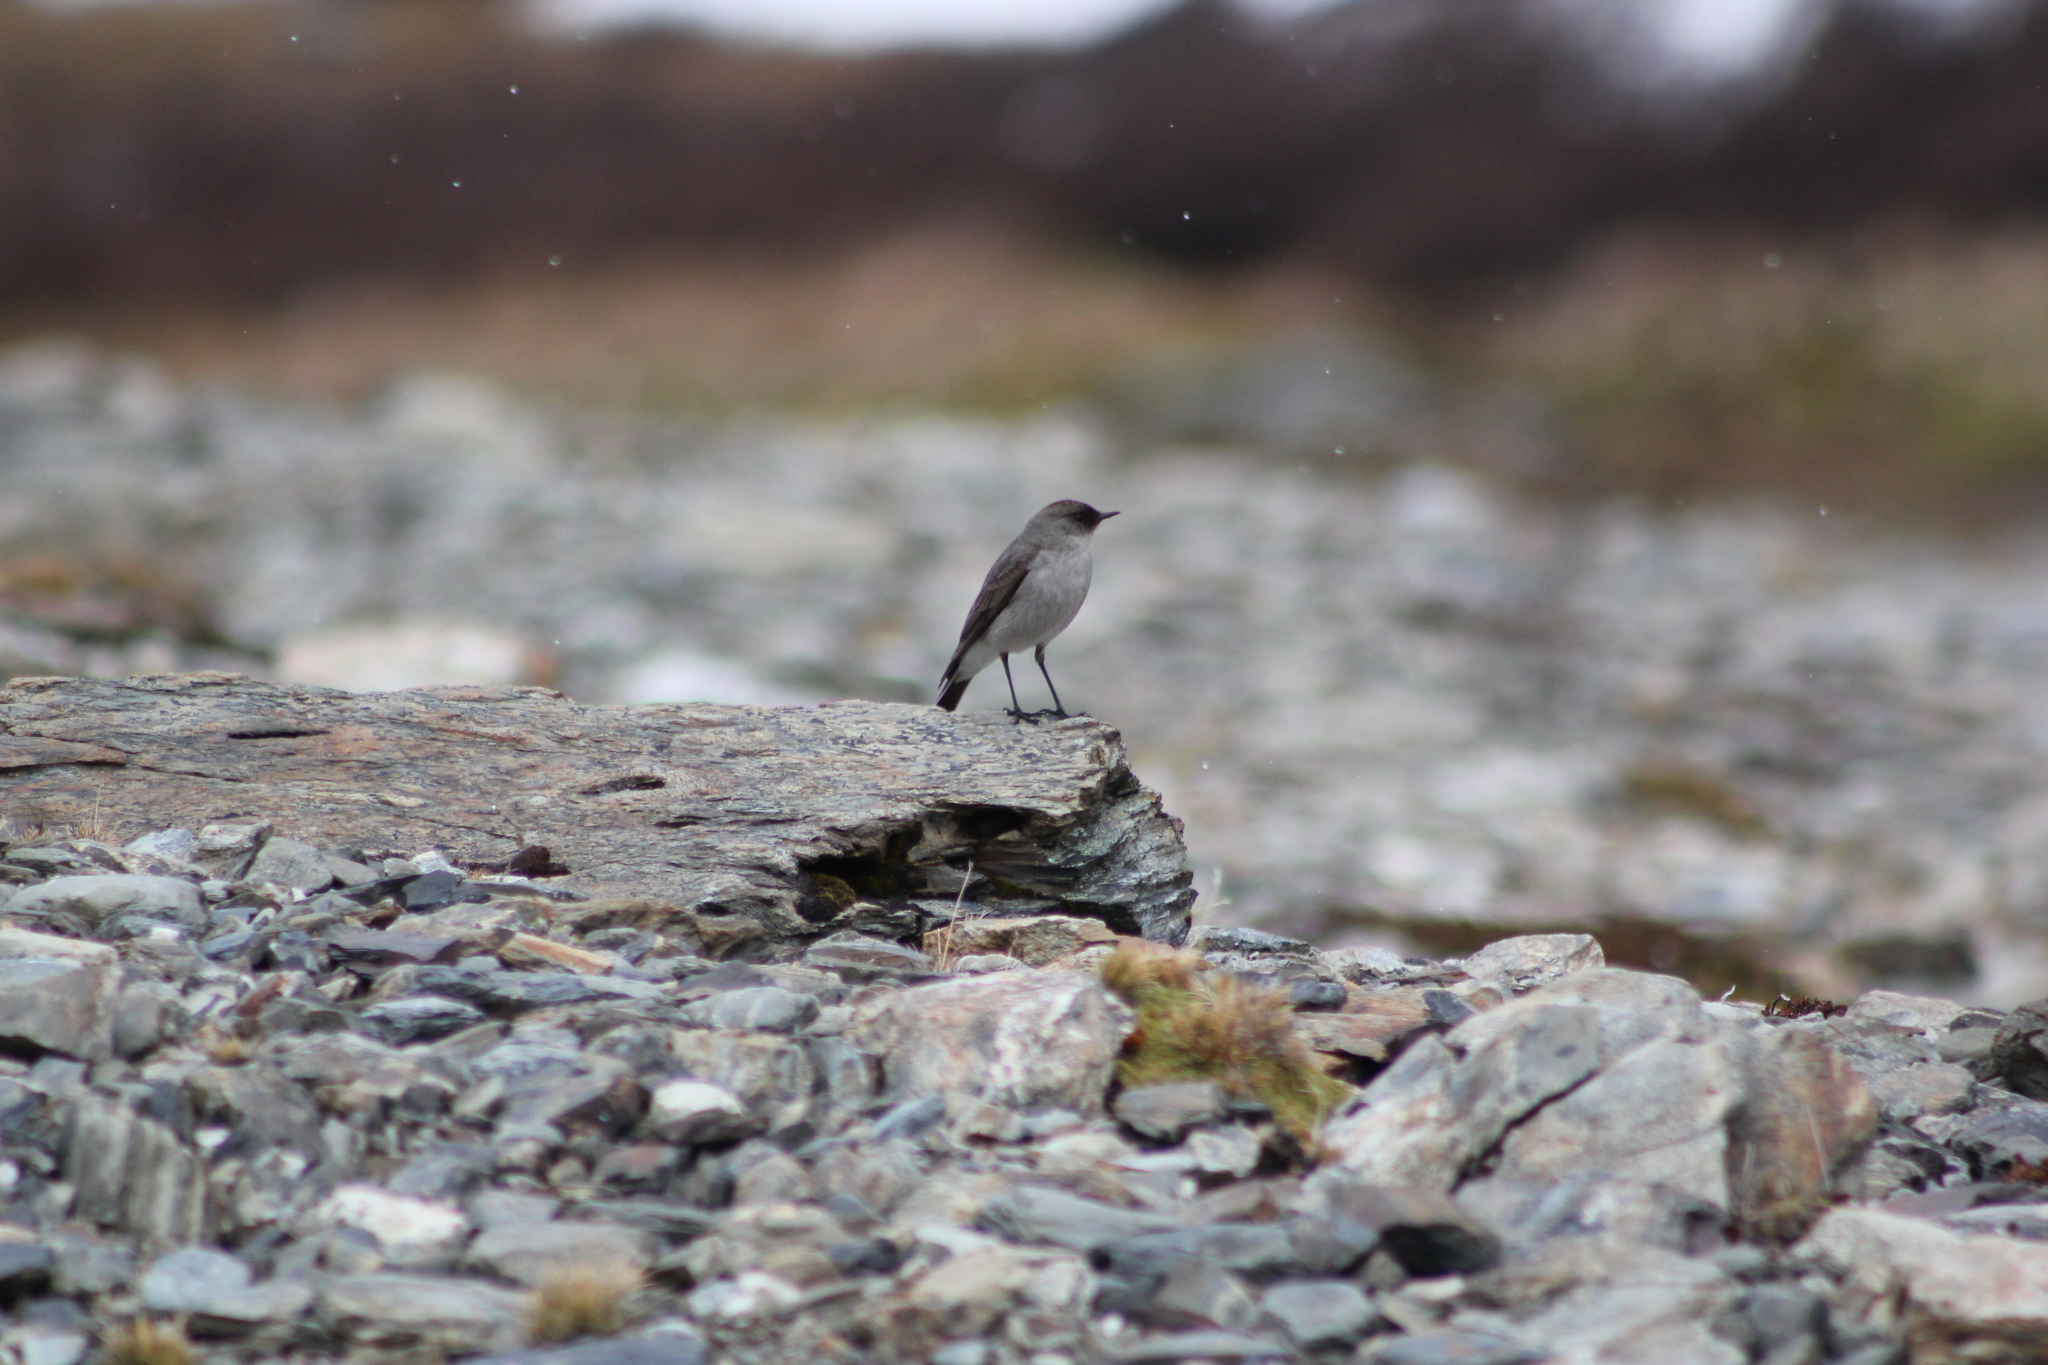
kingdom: Animalia
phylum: Chordata
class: Aves
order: Passeriformes
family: Tyrannidae
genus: Muscisaxicola
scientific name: Muscisaxicola maclovianus
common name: Dark-faced ground tyrant
